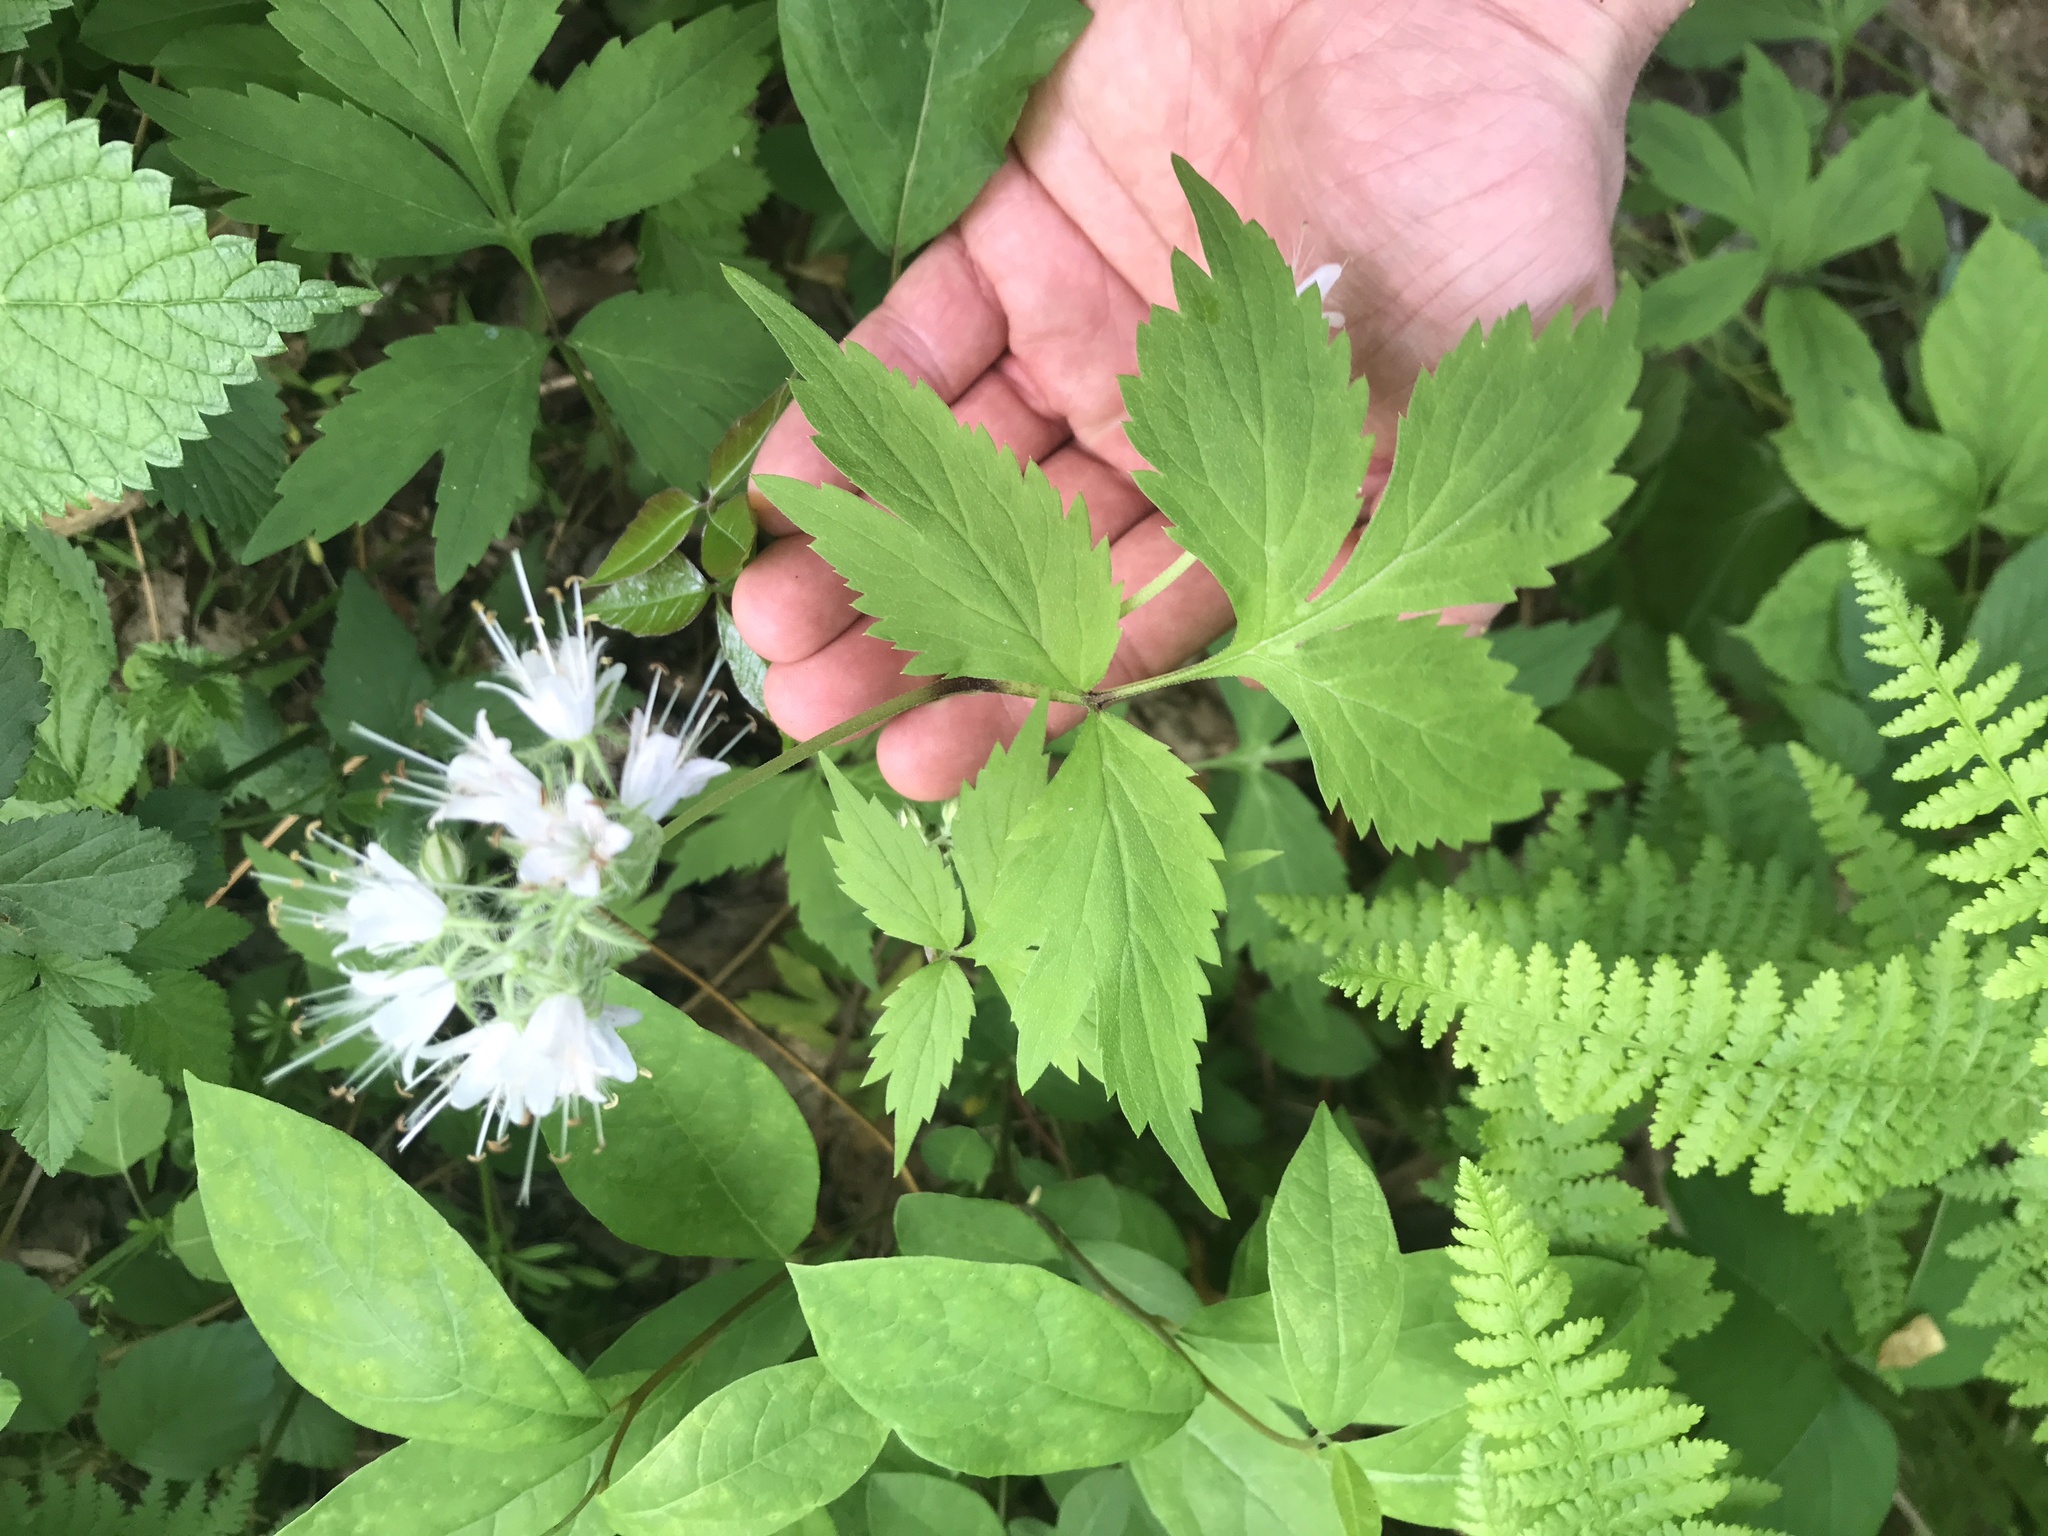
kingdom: Plantae
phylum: Tracheophyta
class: Magnoliopsida
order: Boraginales
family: Hydrophyllaceae
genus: Hydrophyllum
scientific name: Hydrophyllum virginianum
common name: Virginia waterleaf
